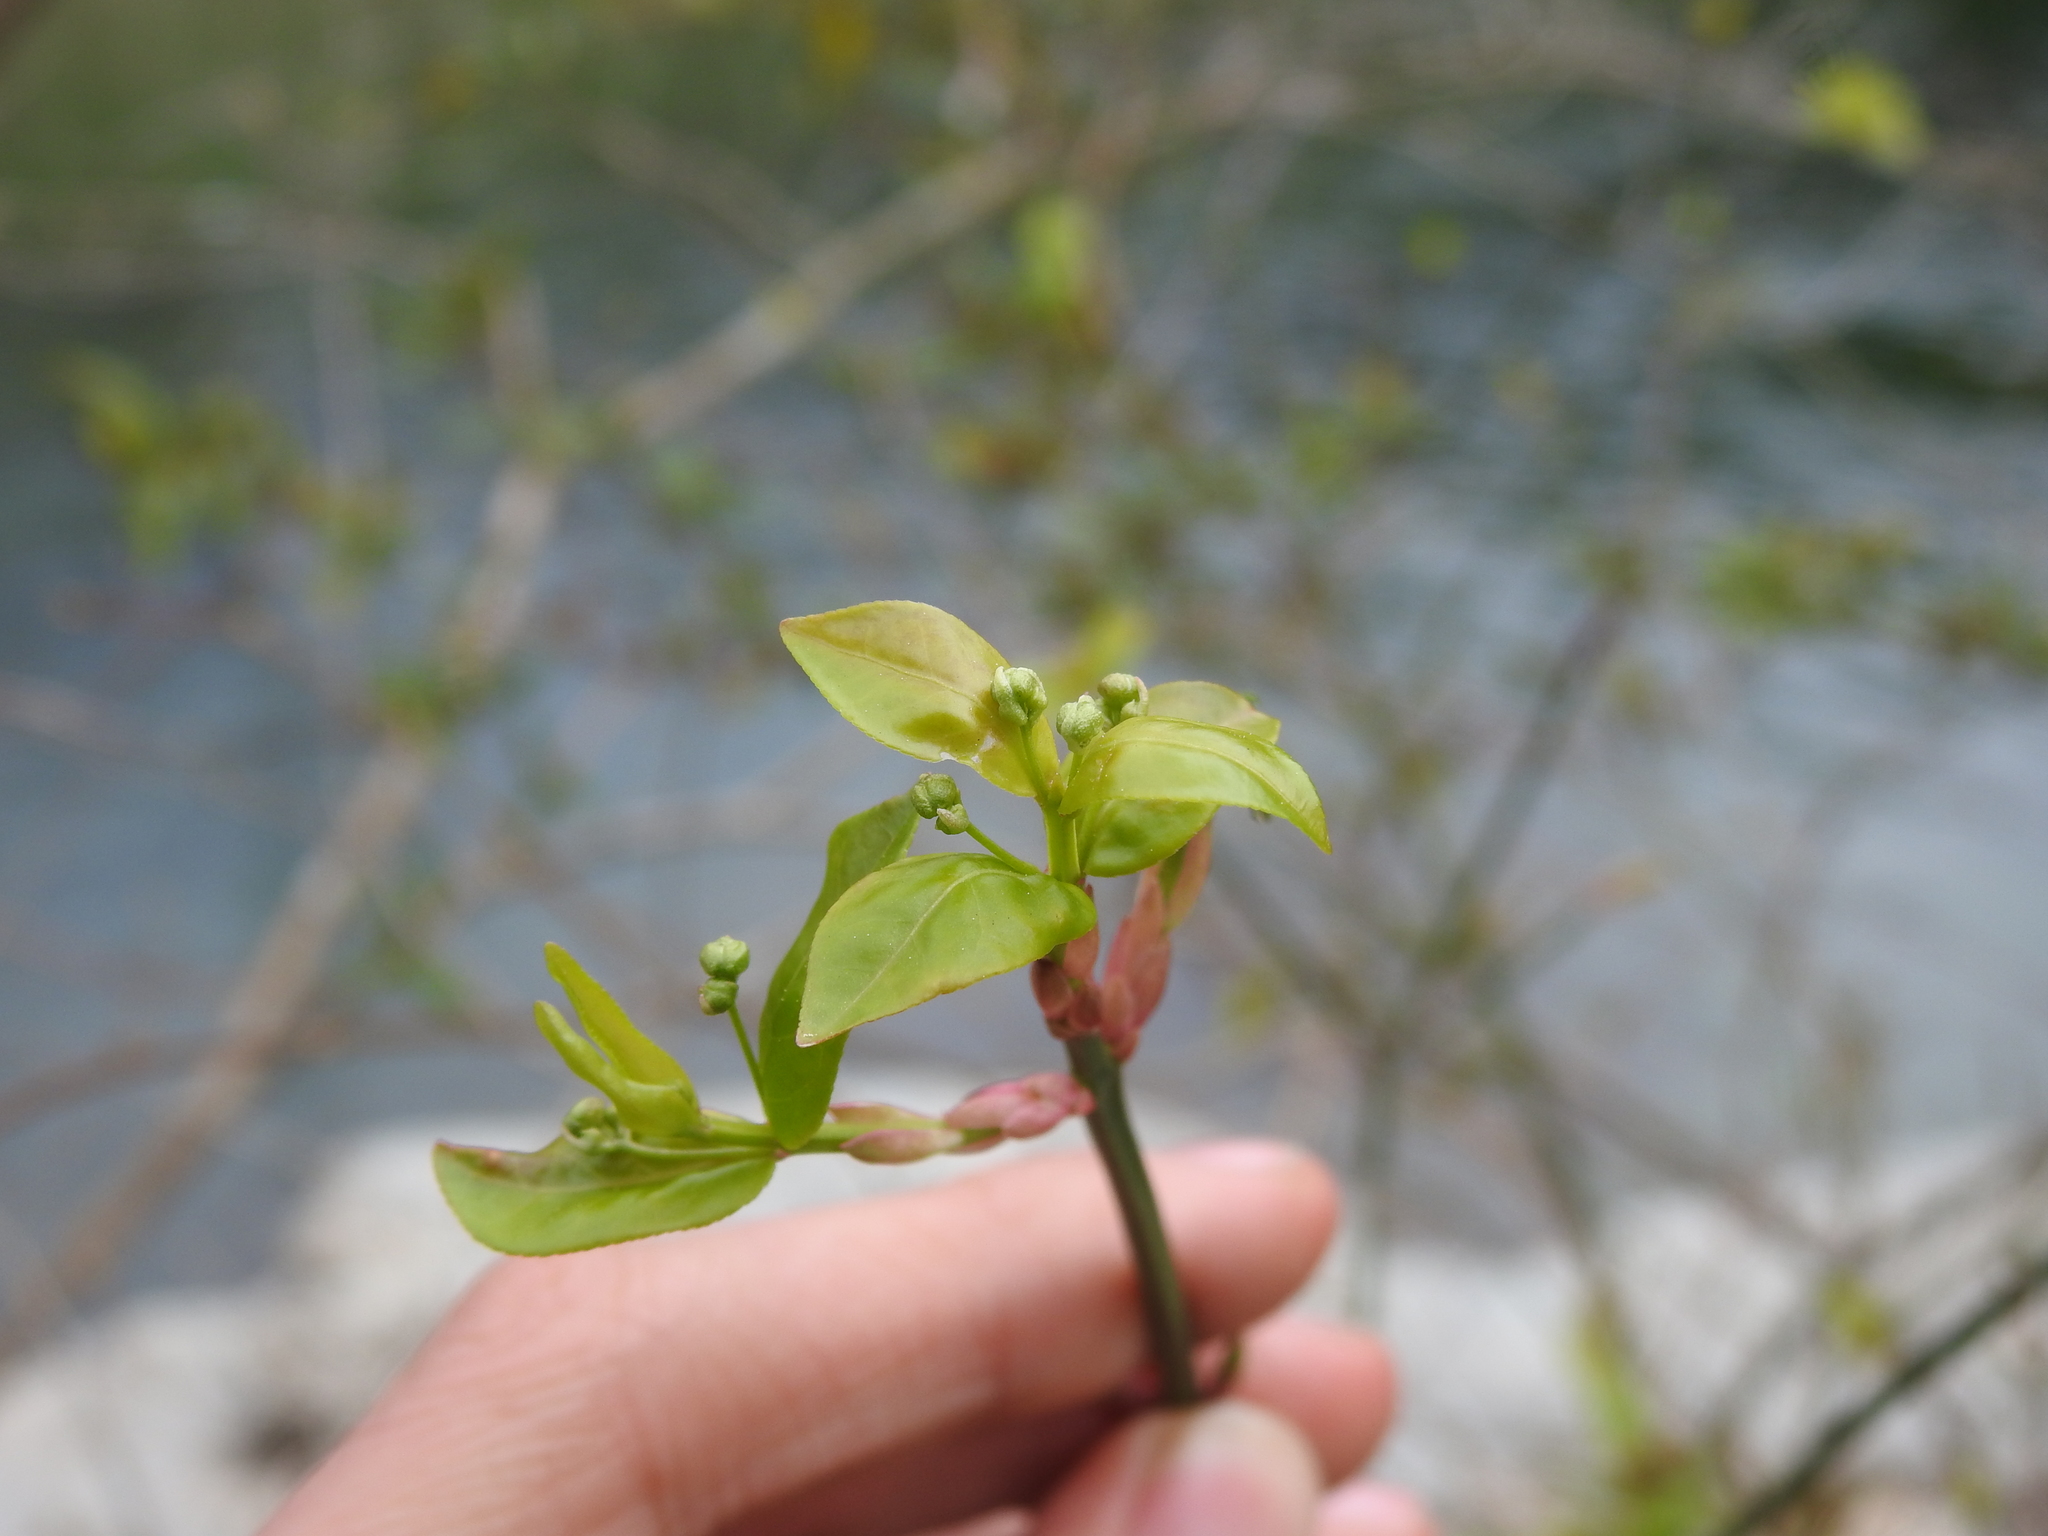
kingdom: Plantae
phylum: Tracheophyta
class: Magnoliopsida
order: Celastrales
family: Celastraceae
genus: Euonymus
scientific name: Euonymus americanus
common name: Bursting-heart
